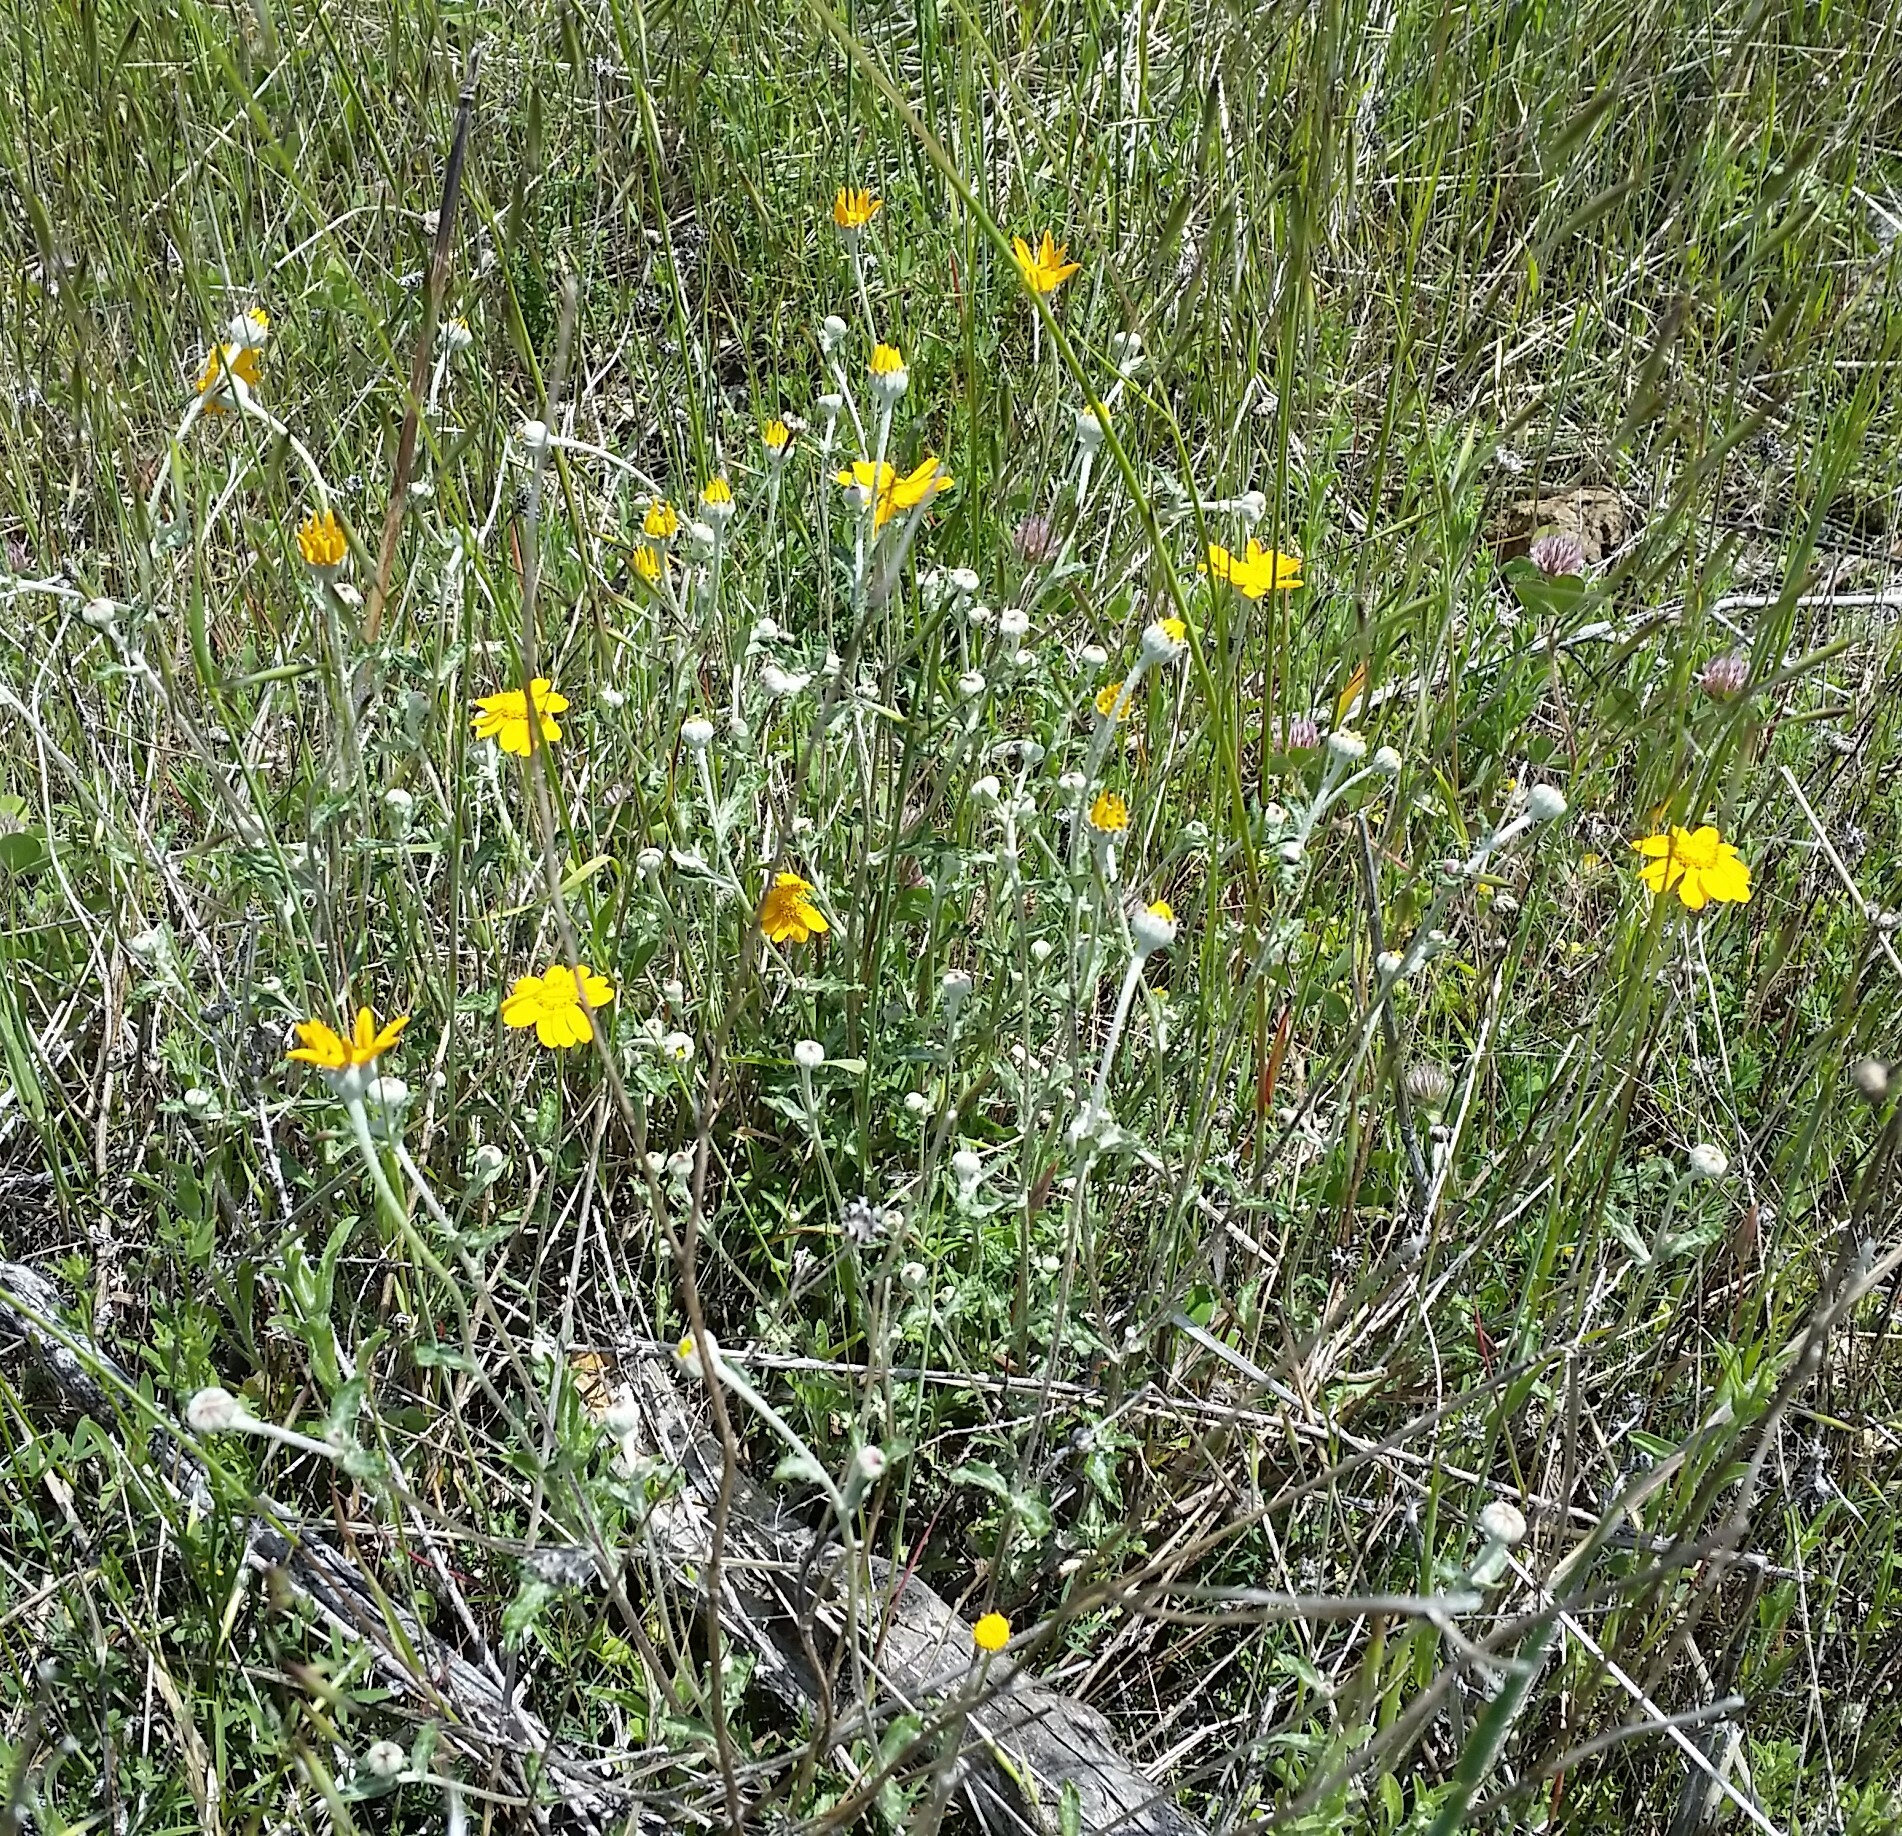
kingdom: Plantae
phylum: Tracheophyta
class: Magnoliopsida
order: Asterales
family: Asteraceae
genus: Eriophyllum
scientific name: Eriophyllum lanatum
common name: Common woolly-sunflower
